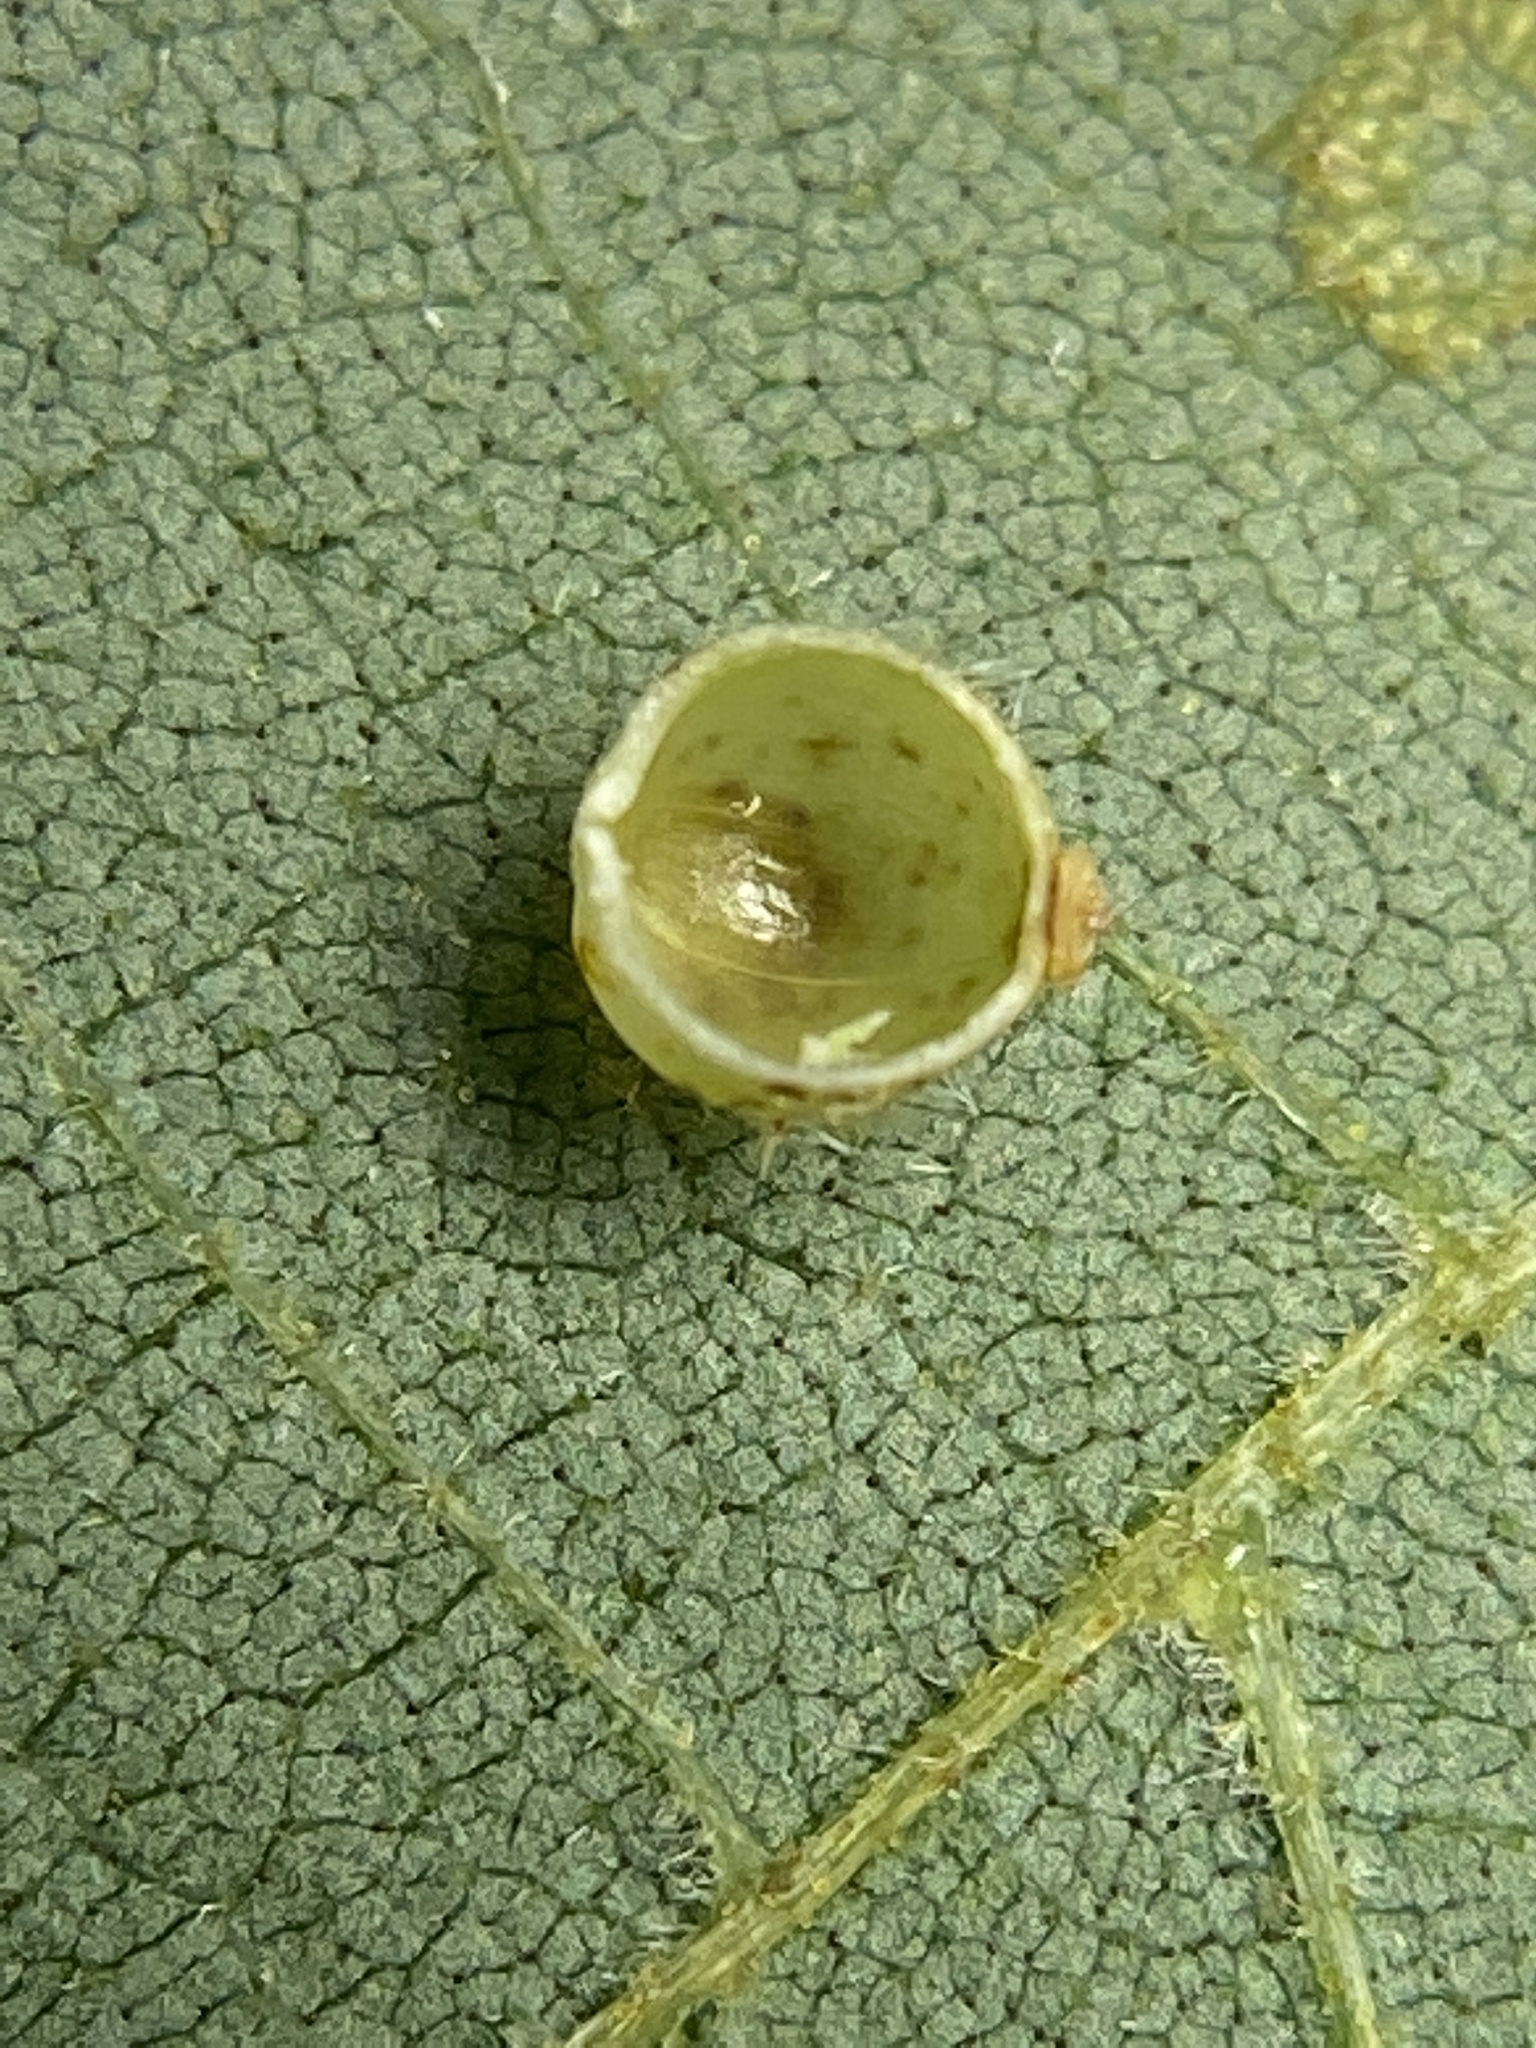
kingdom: Animalia
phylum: Arthropoda
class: Insecta
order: Diptera
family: Cecidomyiidae
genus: Caryomyia
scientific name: Caryomyia spiniglobus
